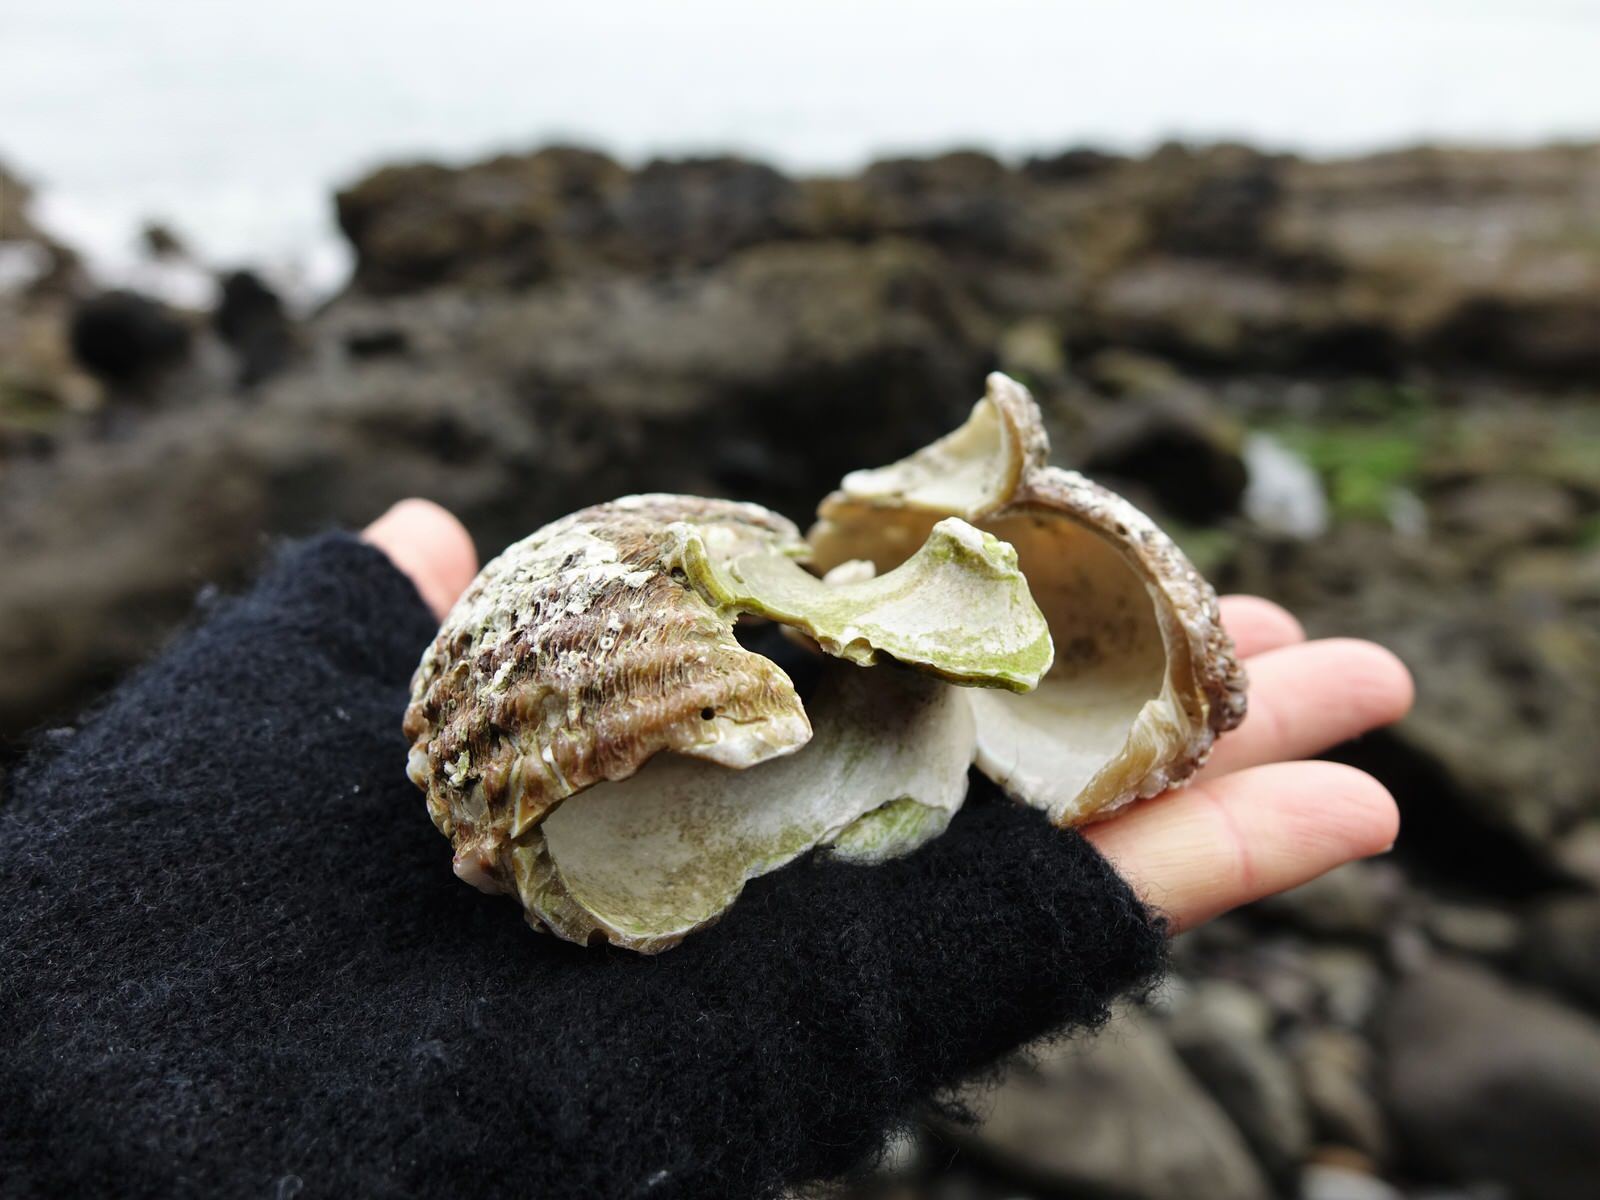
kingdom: Animalia
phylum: Mollusca
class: Gastropoda
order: Trochida
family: Turbinidae
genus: Cookia
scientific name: Cookia sulcata
